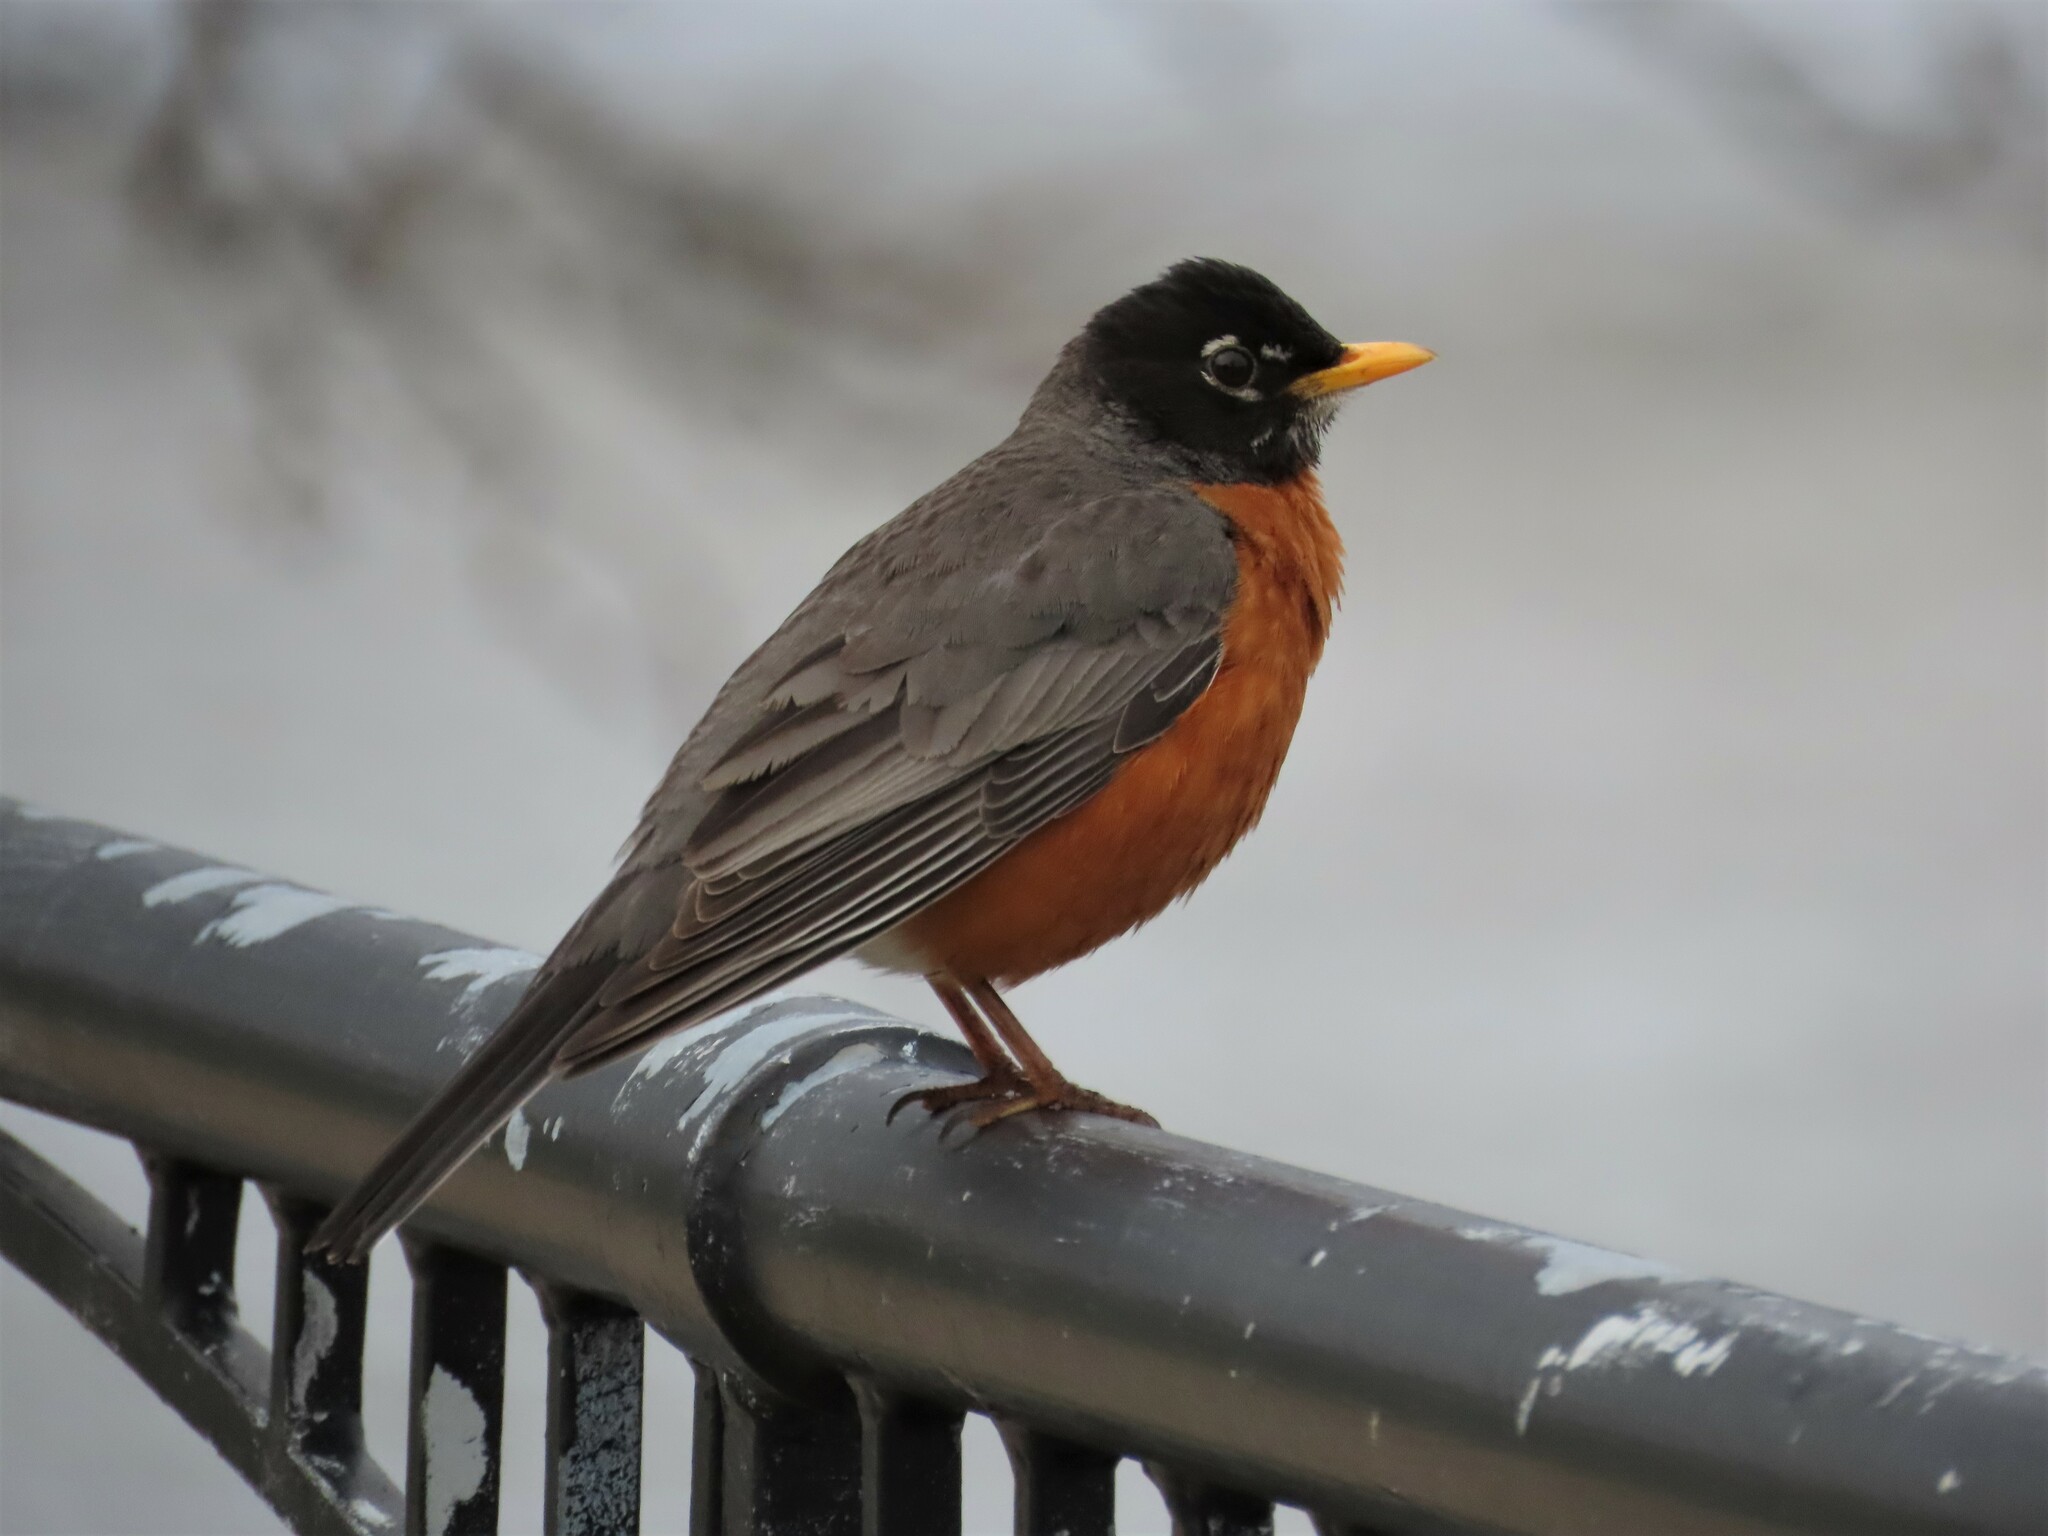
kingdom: Animalia
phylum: Chordata
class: Aves
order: Passeriformes
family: Turdidae
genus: Turdus
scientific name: Turdus migratorius
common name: American robin
